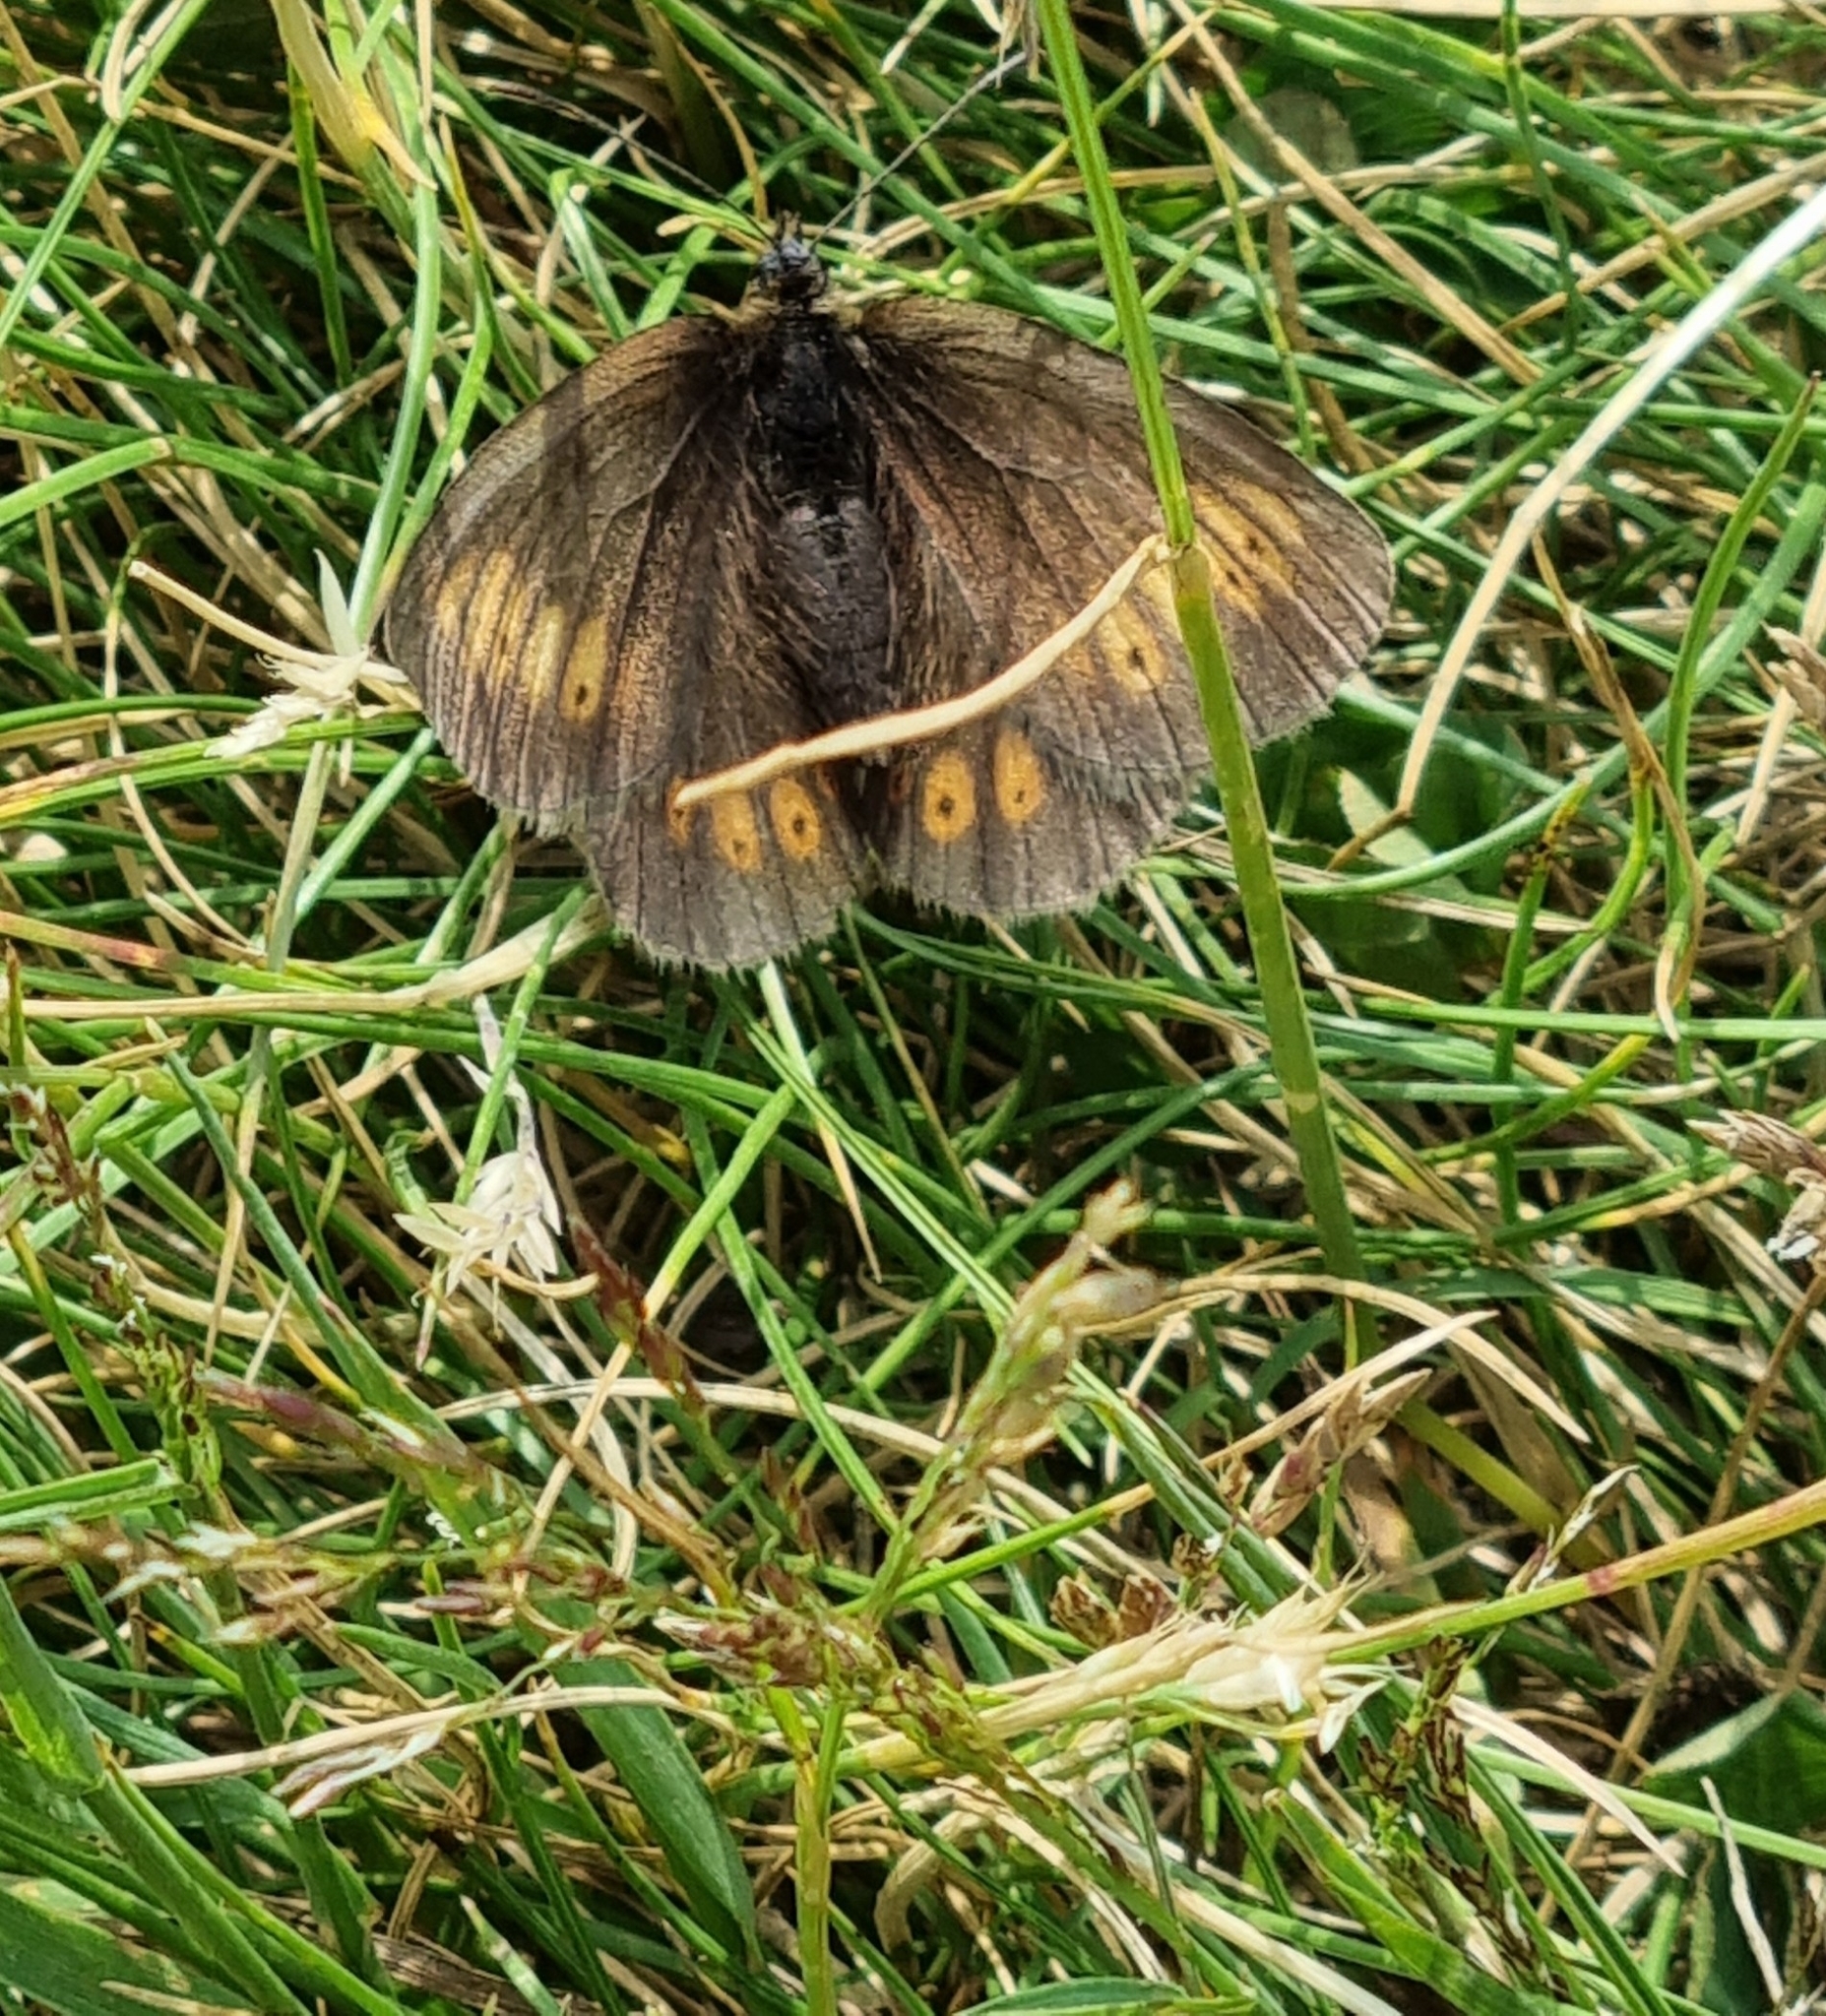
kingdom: Animalia
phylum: Arthropoda
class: Insecta
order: Lepidoptera
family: Nymphalidae
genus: Erebia
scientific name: Erebia alberganus
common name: Almond-eyed ringlet
